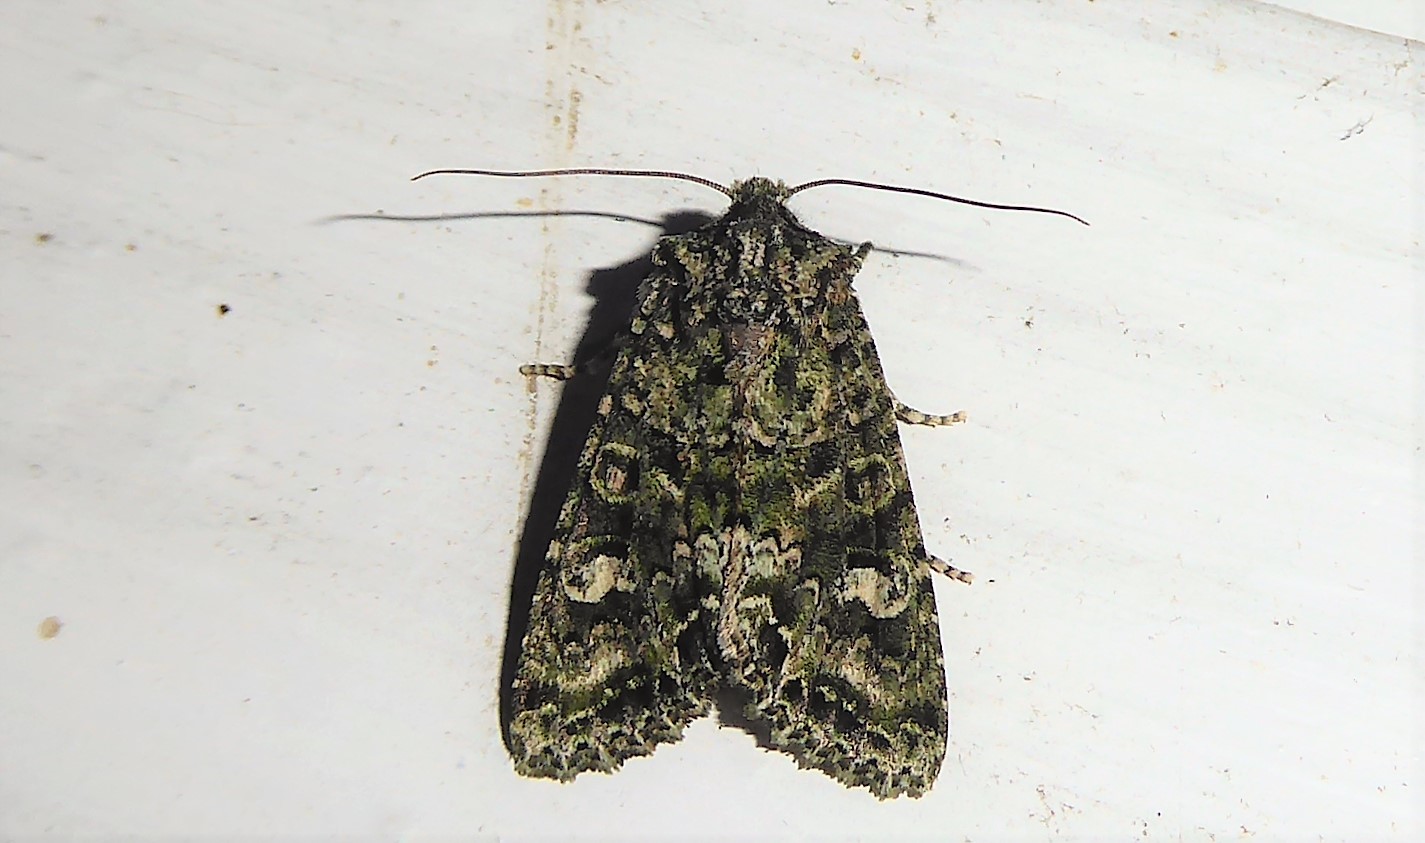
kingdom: Animalia
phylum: Arthropoda
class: Insecta
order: Lepidoptera
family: Noctuidae
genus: Ichneutica
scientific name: Ichneutica
